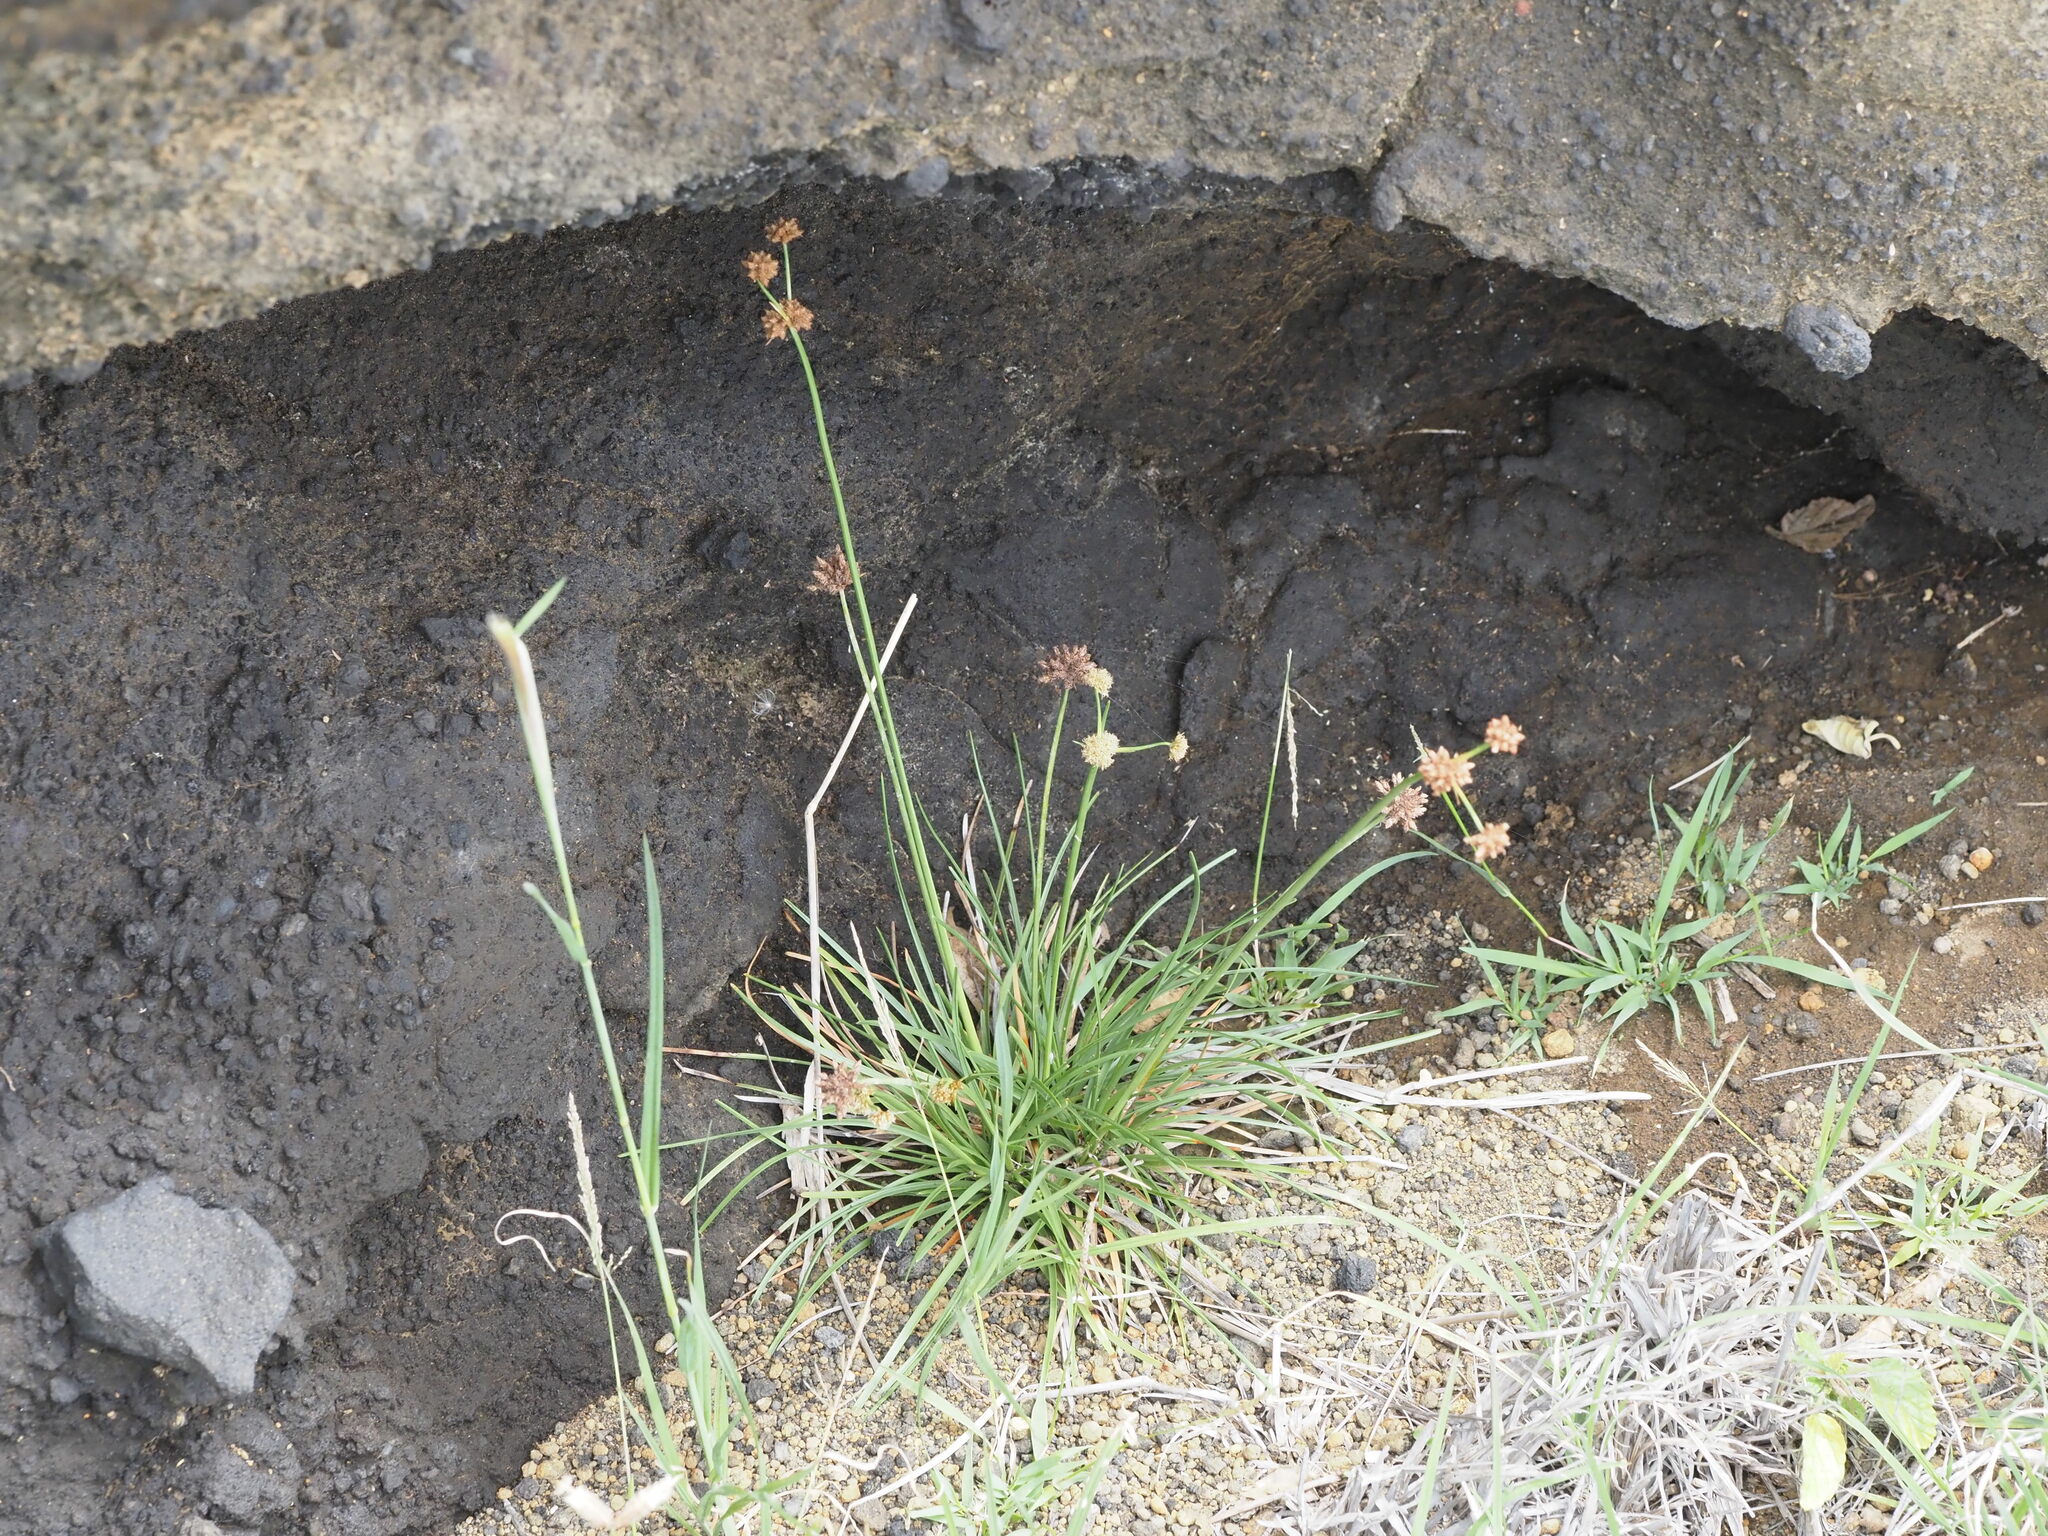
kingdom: Plantae
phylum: Tracheophyta
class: Liliopsida
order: Poales
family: Cyperaceae
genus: Fimbristylis
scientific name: Fimbristylis cymosa
